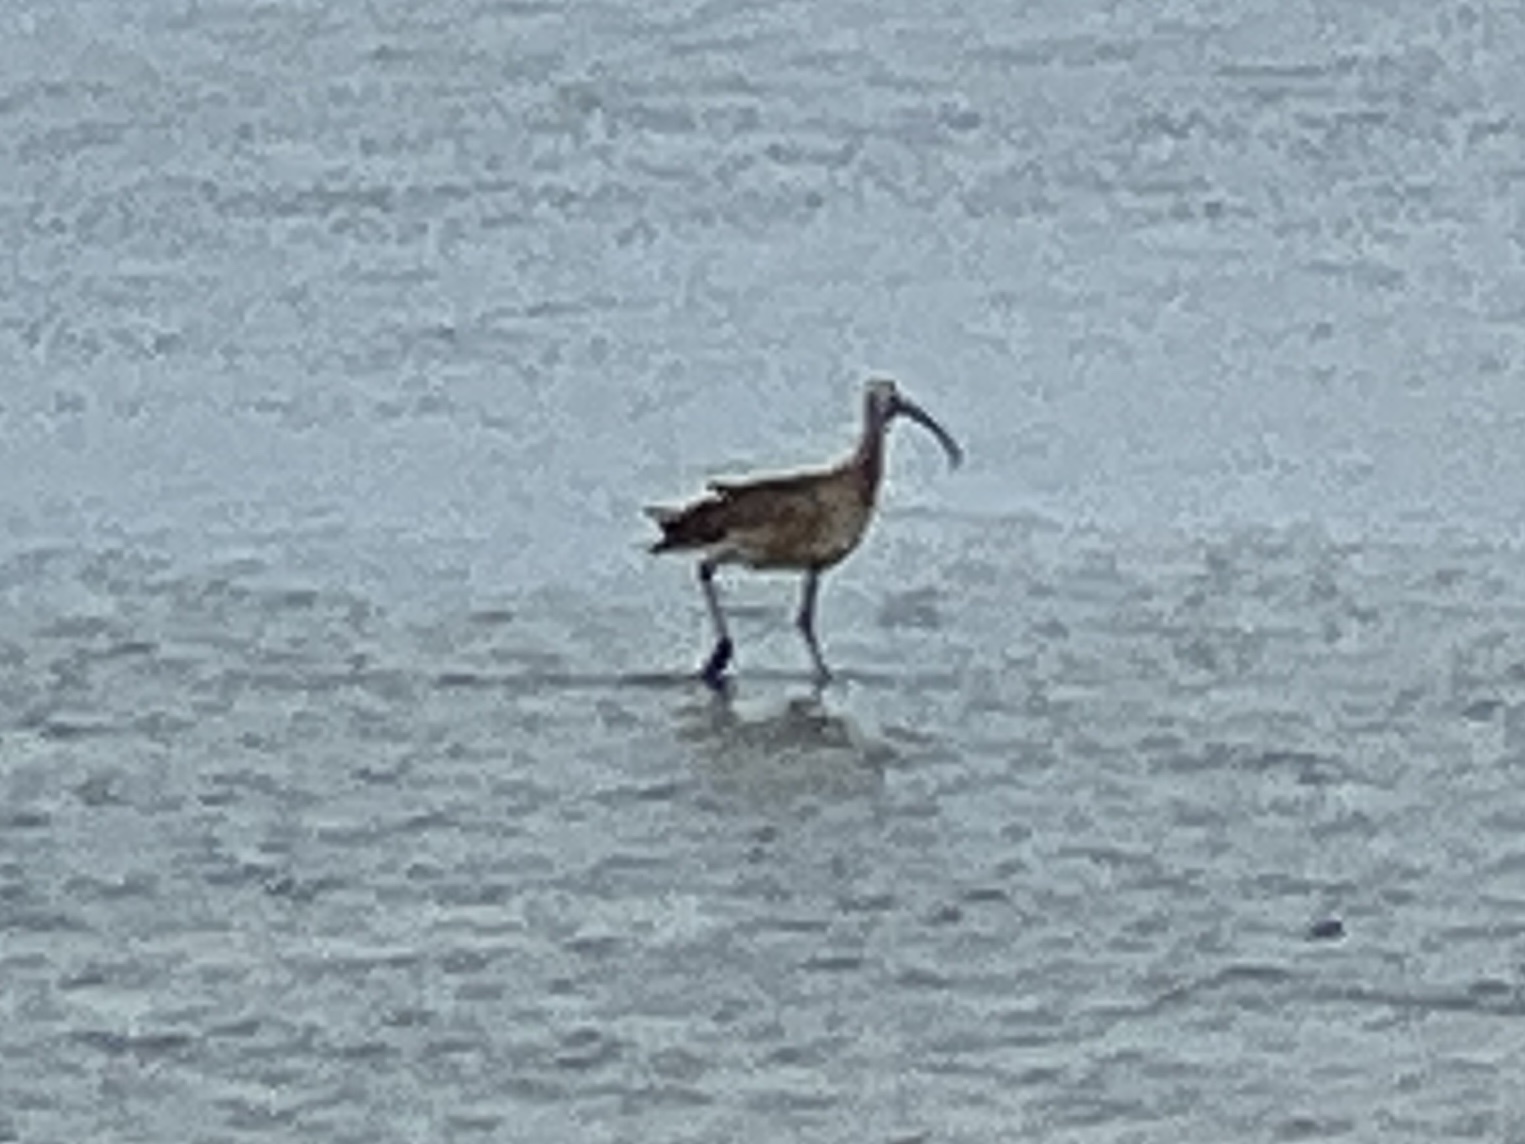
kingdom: Animalia
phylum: Chordata
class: Aves
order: Charadriiformes
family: Scolopacidae
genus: Numenius
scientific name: Numenius americanus
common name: Long-billed curlew
